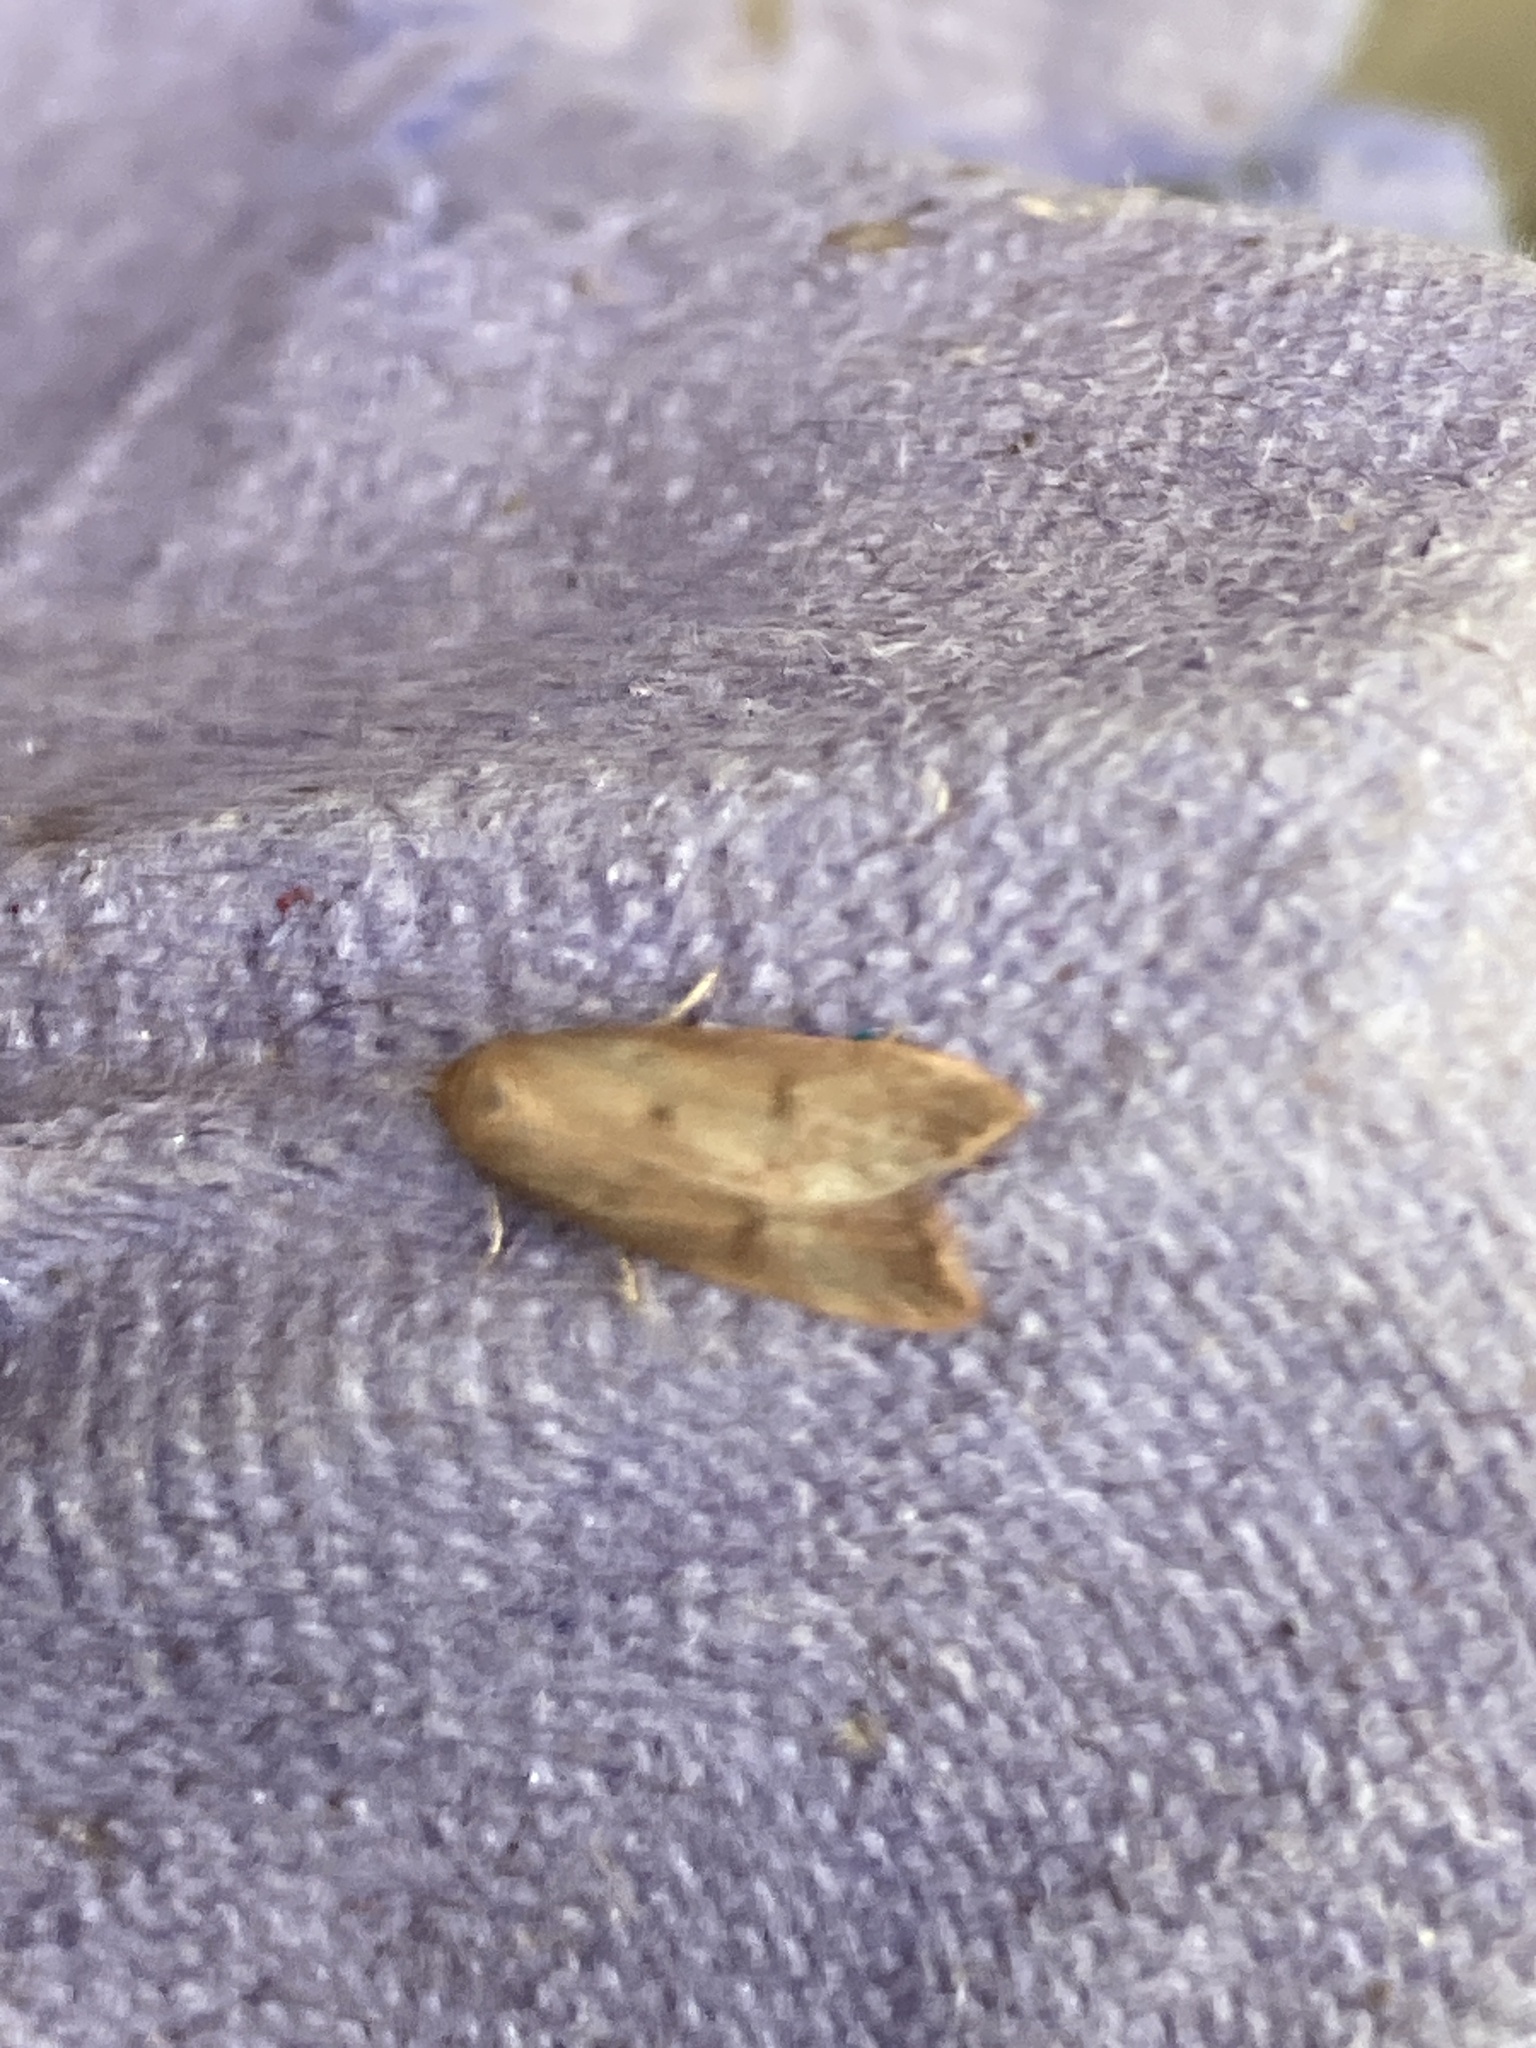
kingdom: Animalia
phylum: Arthropoda
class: Insecta
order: Lepidoptera
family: Oecophoridae
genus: Tachystola
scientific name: Tachystola acroxantha
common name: Ruddy streak
